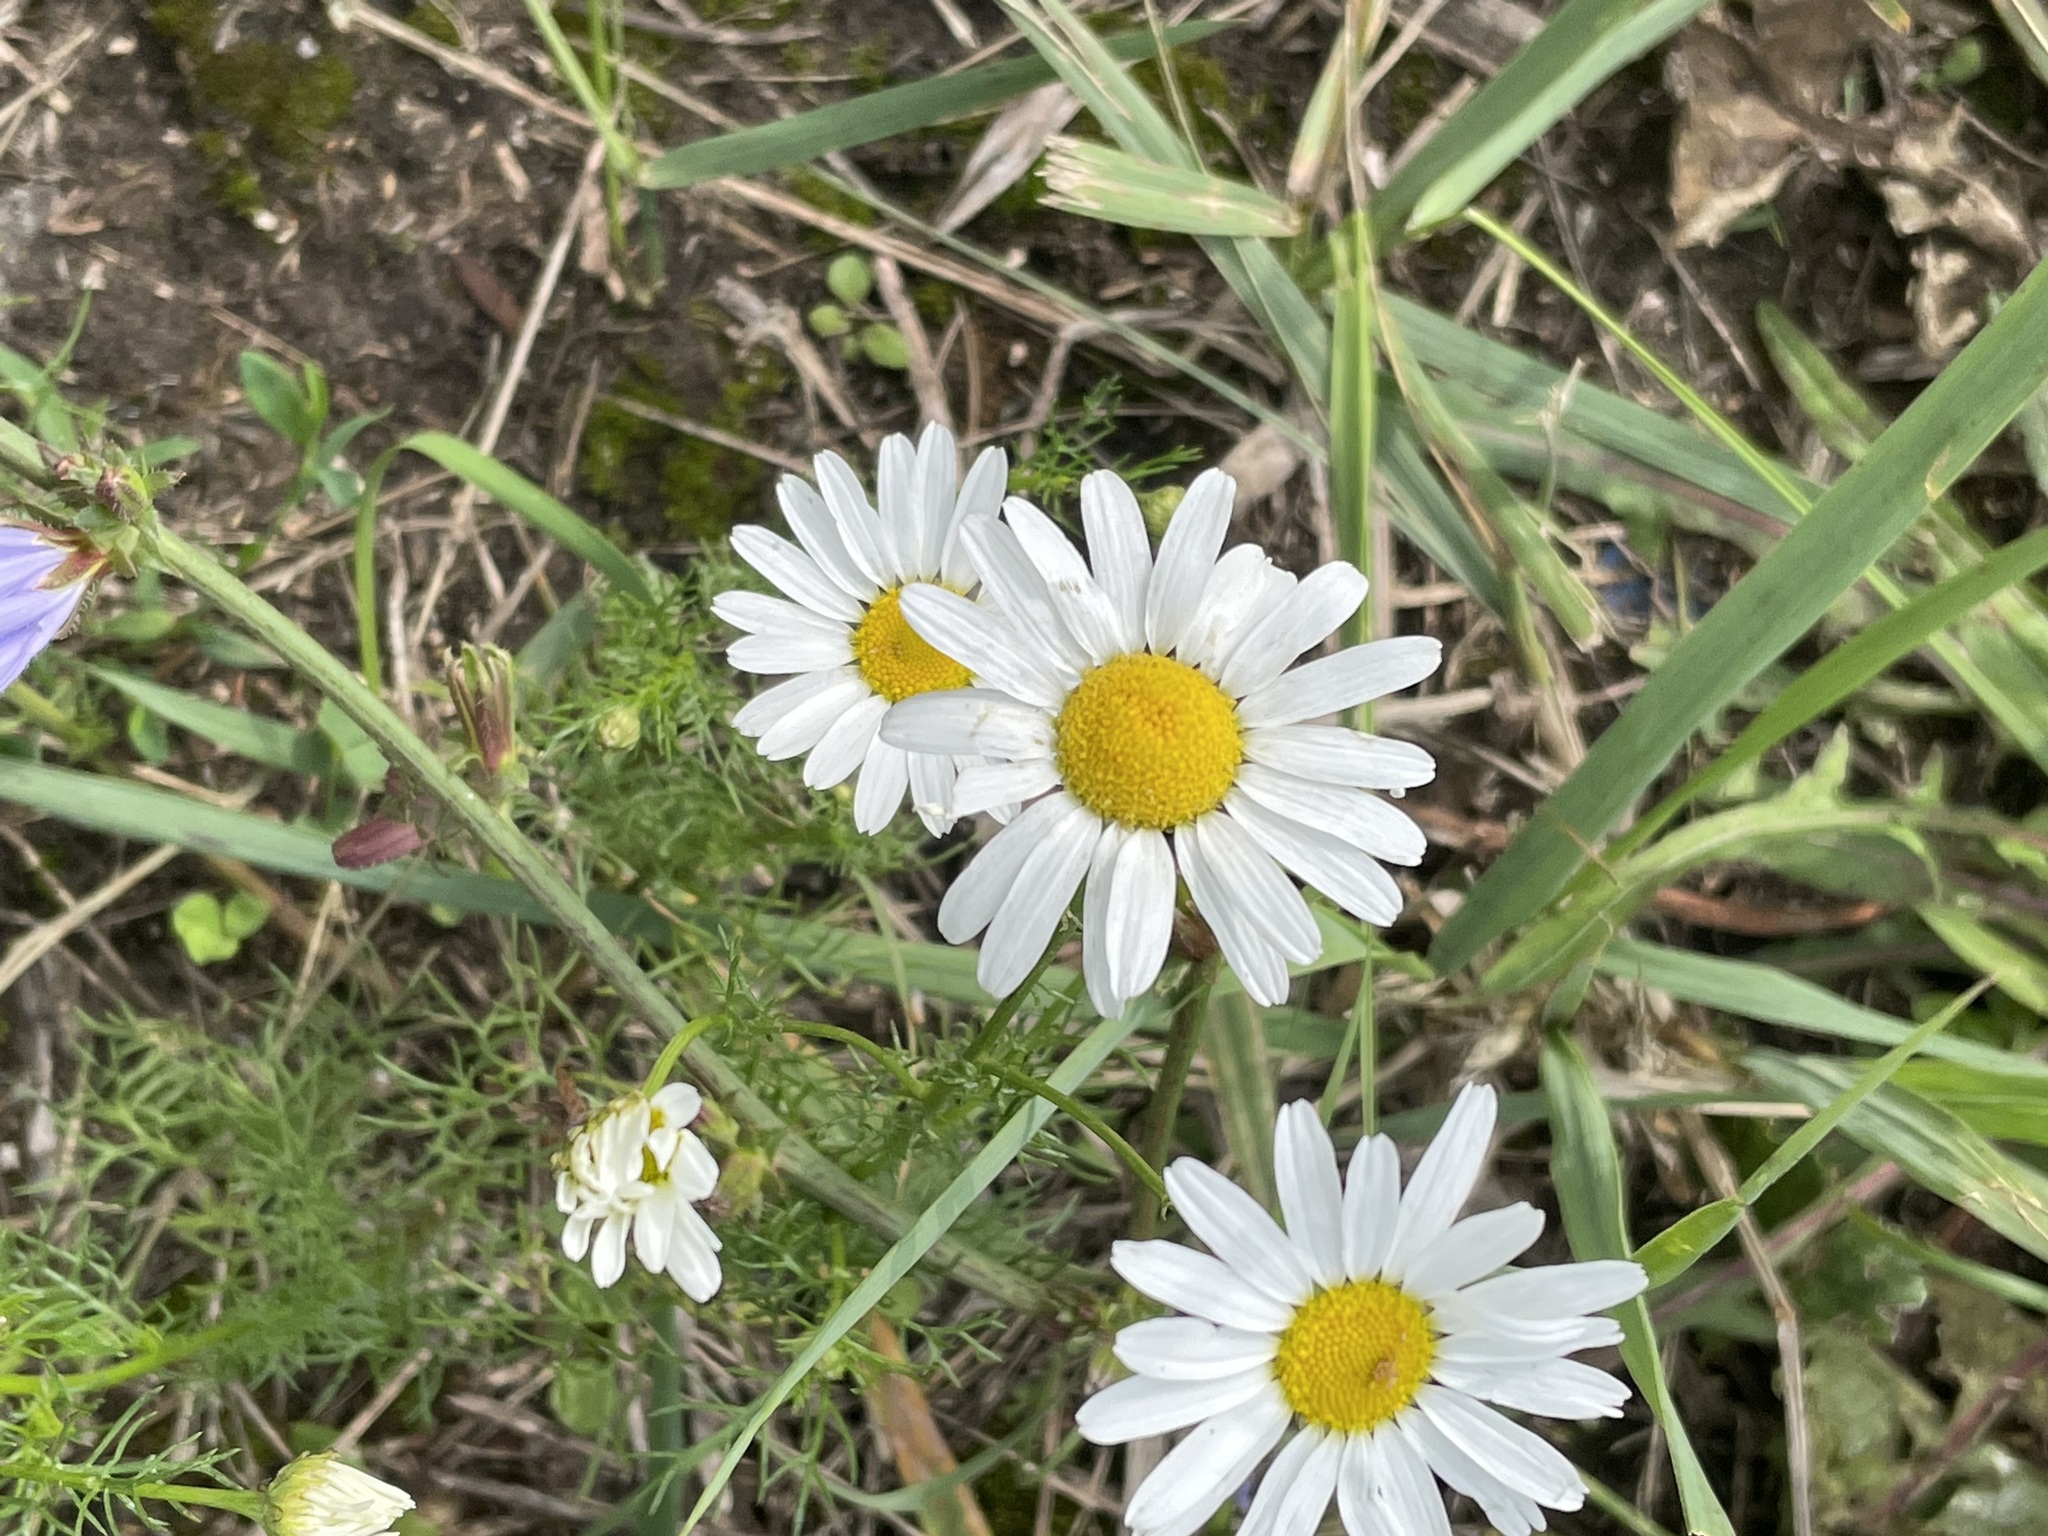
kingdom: Plantae
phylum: Tracheophyta
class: Magnoliopsida
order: Asterales
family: Asteraceae
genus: Tripleurospermum
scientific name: Tripleurospermum inodorum
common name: Scentless mayweed
